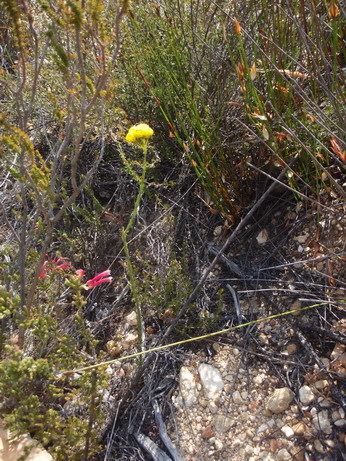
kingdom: Plantae
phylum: Tracheophyta
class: Magnoliopsida
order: Asterales
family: Asteraceae
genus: Athanasia
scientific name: Athanasia linifolia
